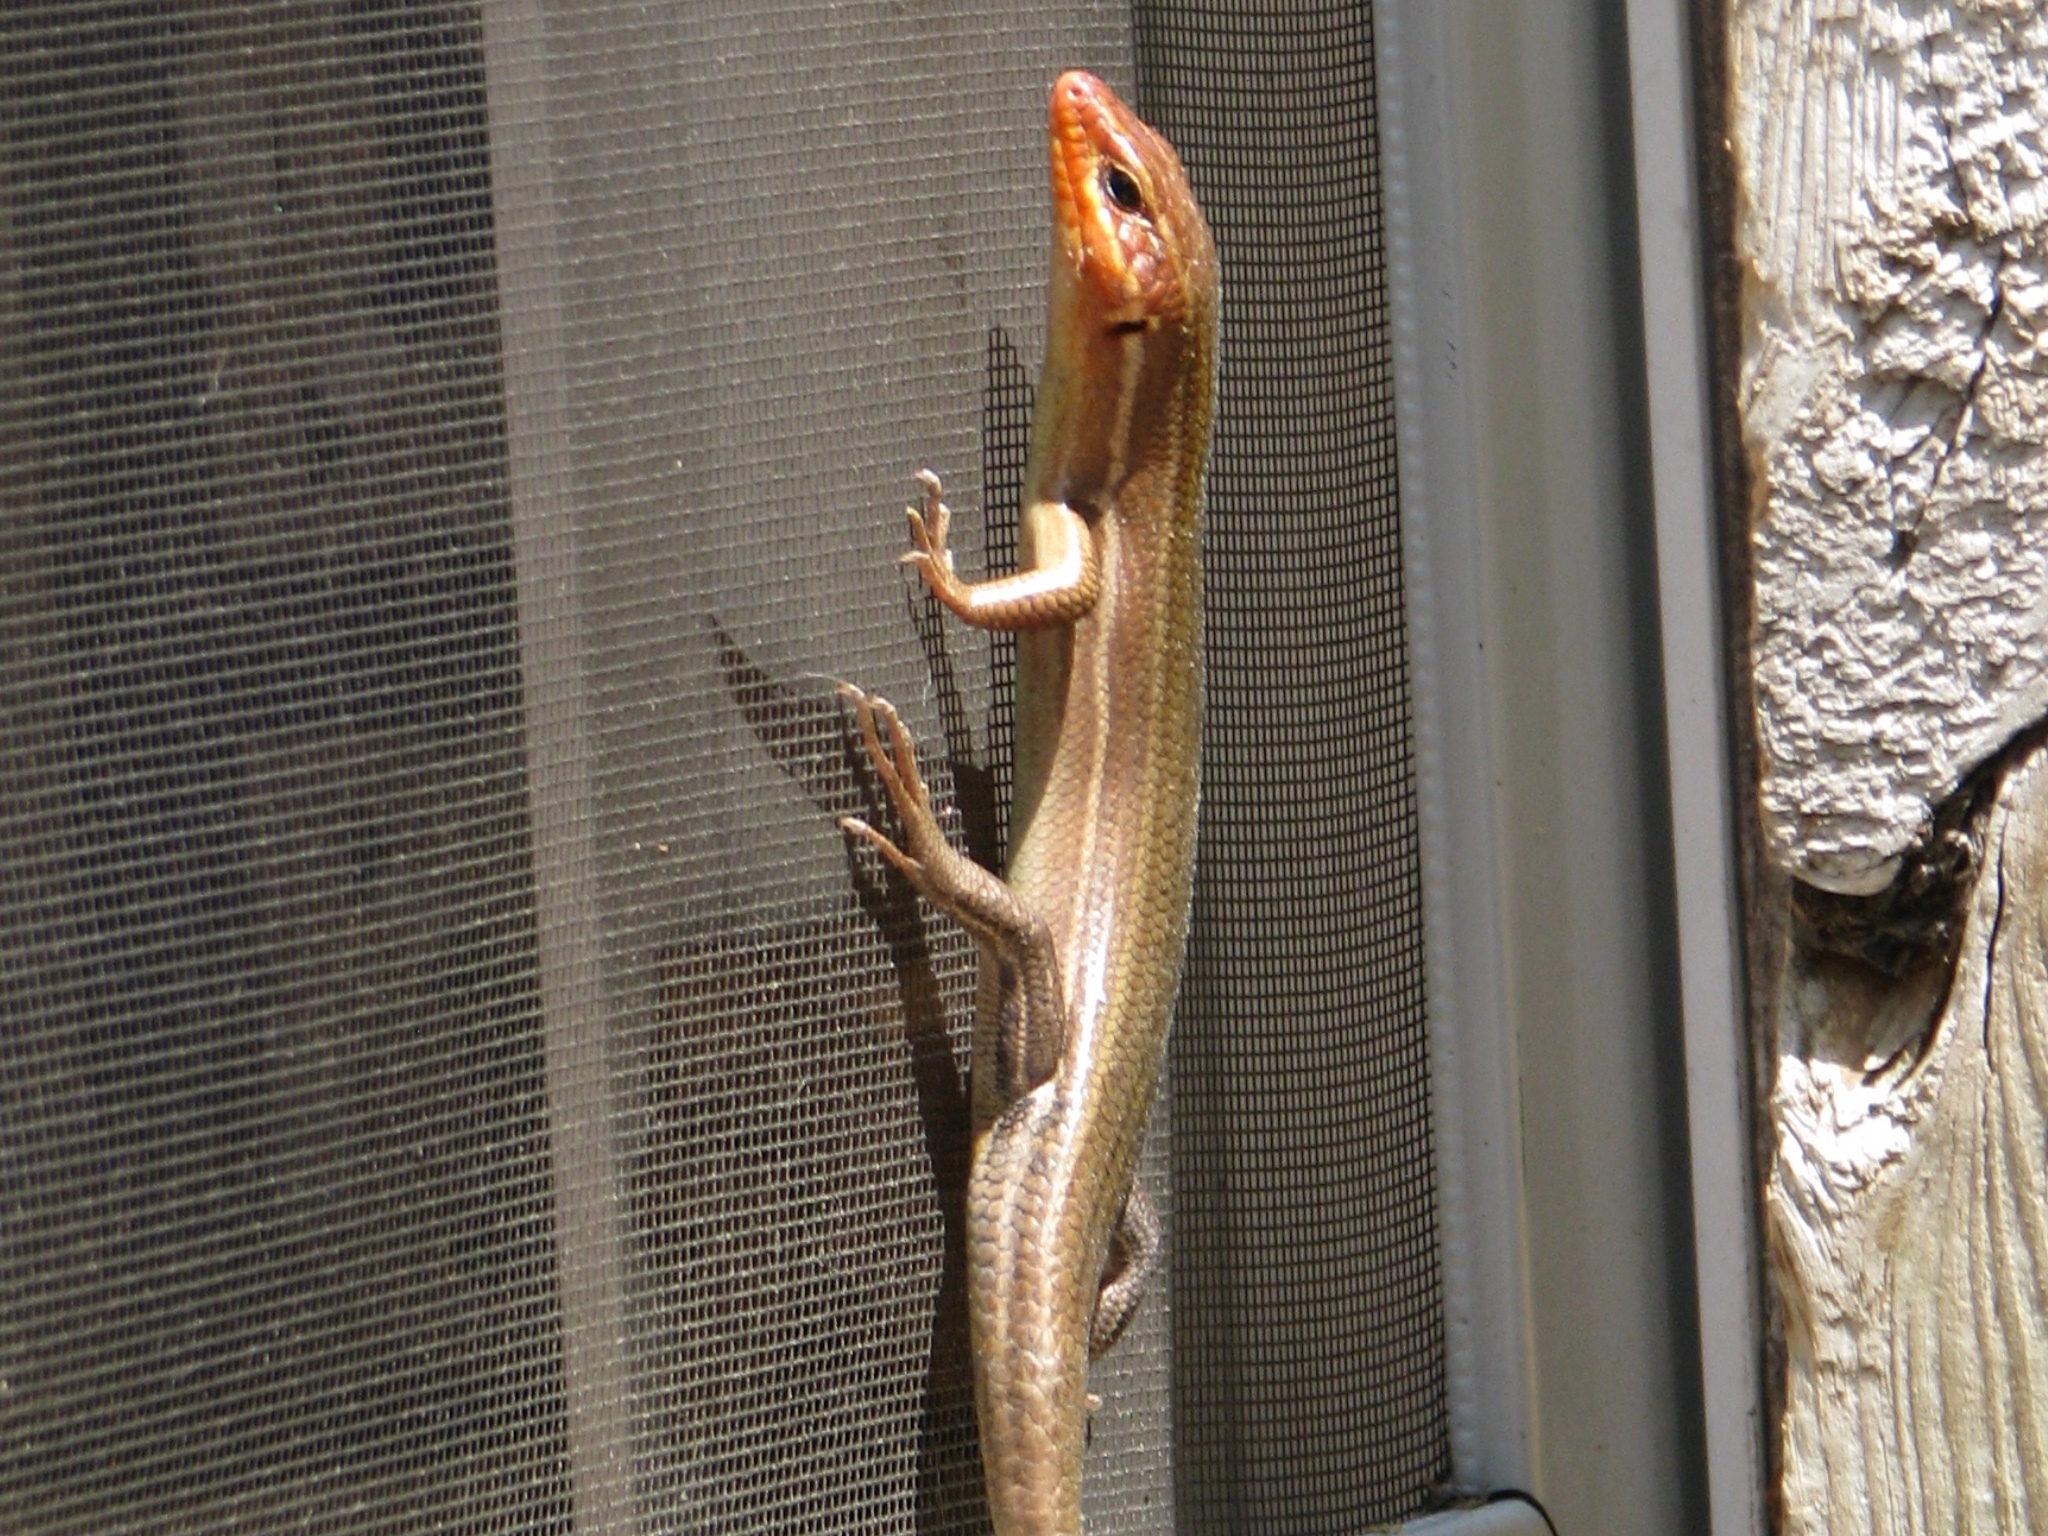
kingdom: Animalia
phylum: Chordata
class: Squamata
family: Scincidae
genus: Plestiodon
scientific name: Plestiodon laticeps
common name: Broadhead skink
